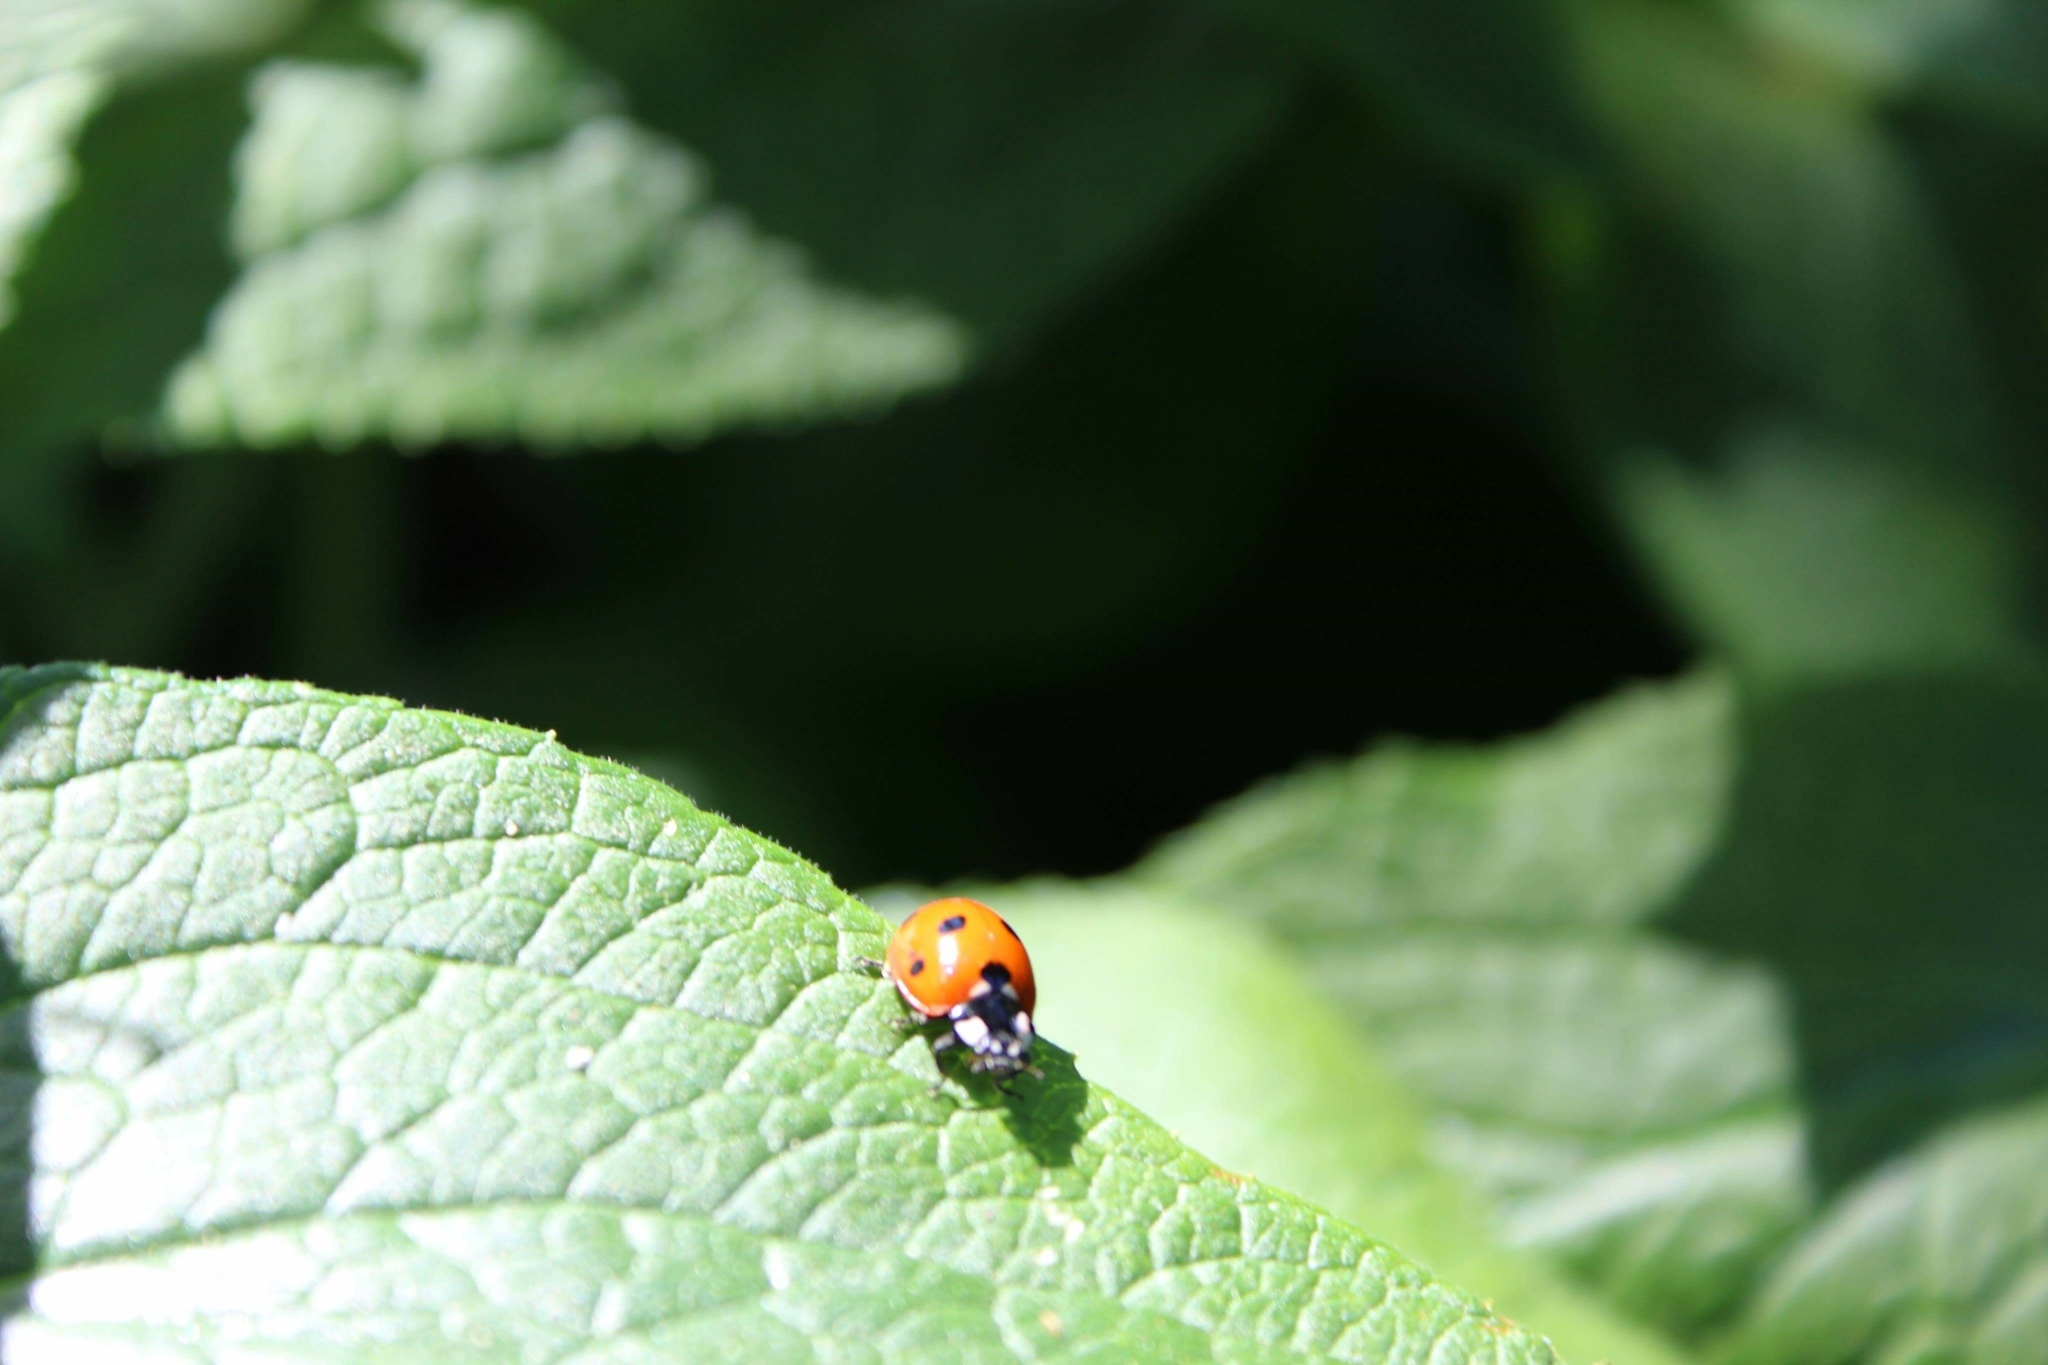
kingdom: Animalia
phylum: Arthropoda
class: Insecta
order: Coleoptera
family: Coccinellidae
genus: Coccinella
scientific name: Coccinella septempunctata
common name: Sevenspotted lady beetle
